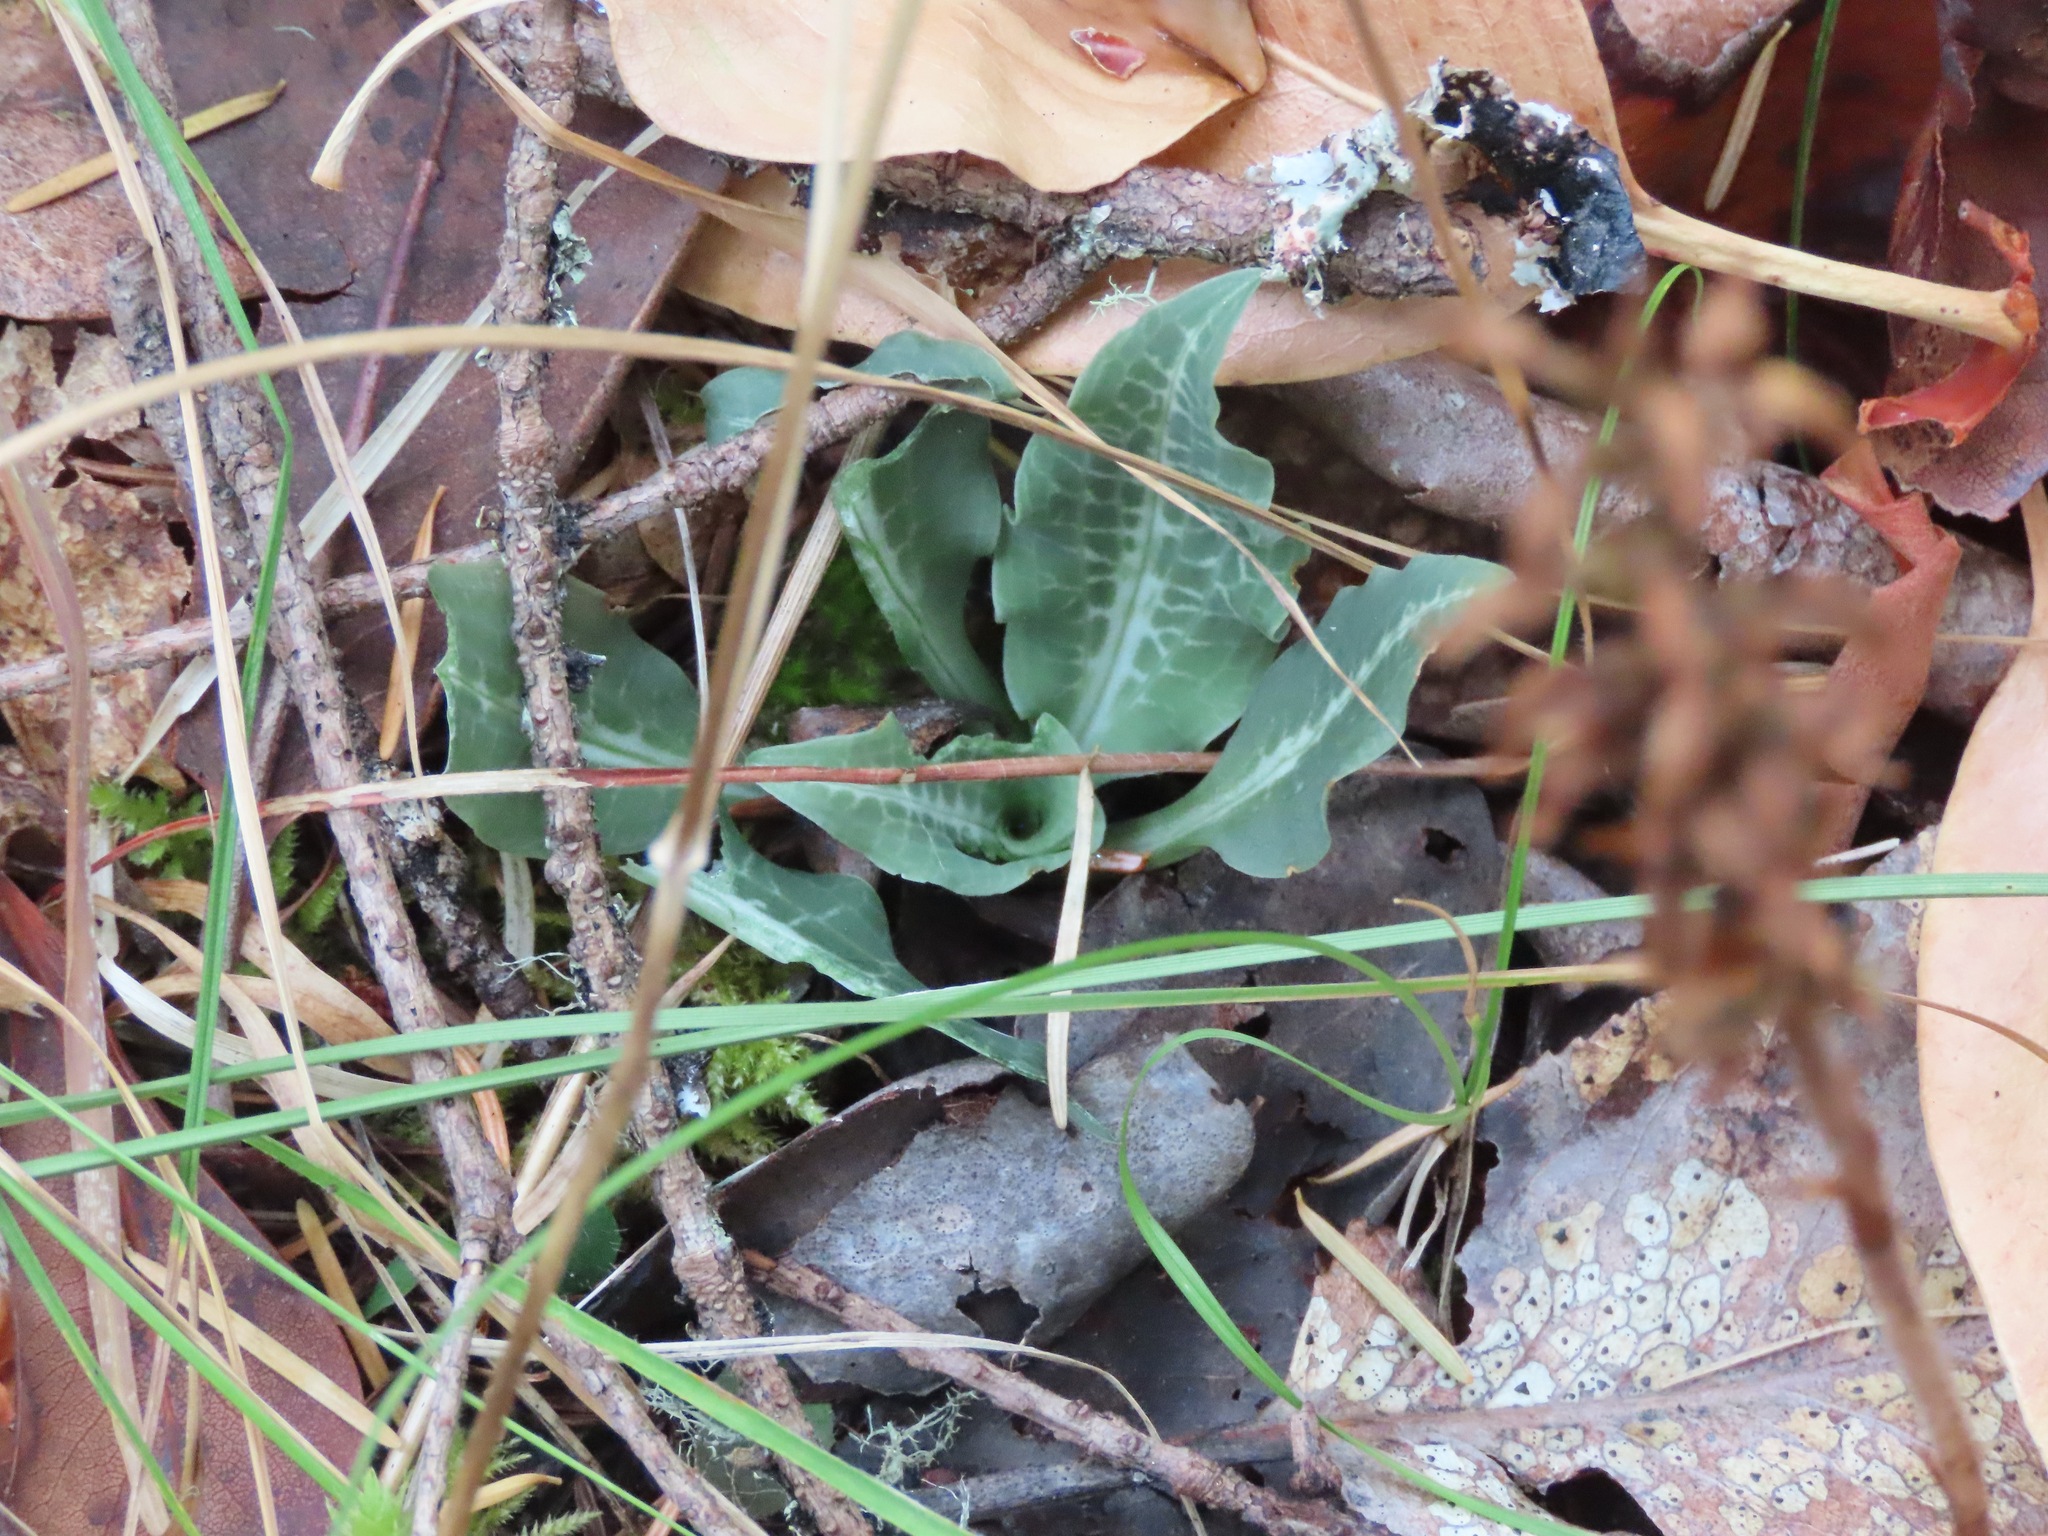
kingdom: Plantae
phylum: Tracheophyta
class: Liliopsida
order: Asparagales
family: Orchidaceae
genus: Goodyera
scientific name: Goodyera oblongifolia
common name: Giant rattlesnake-plantain
